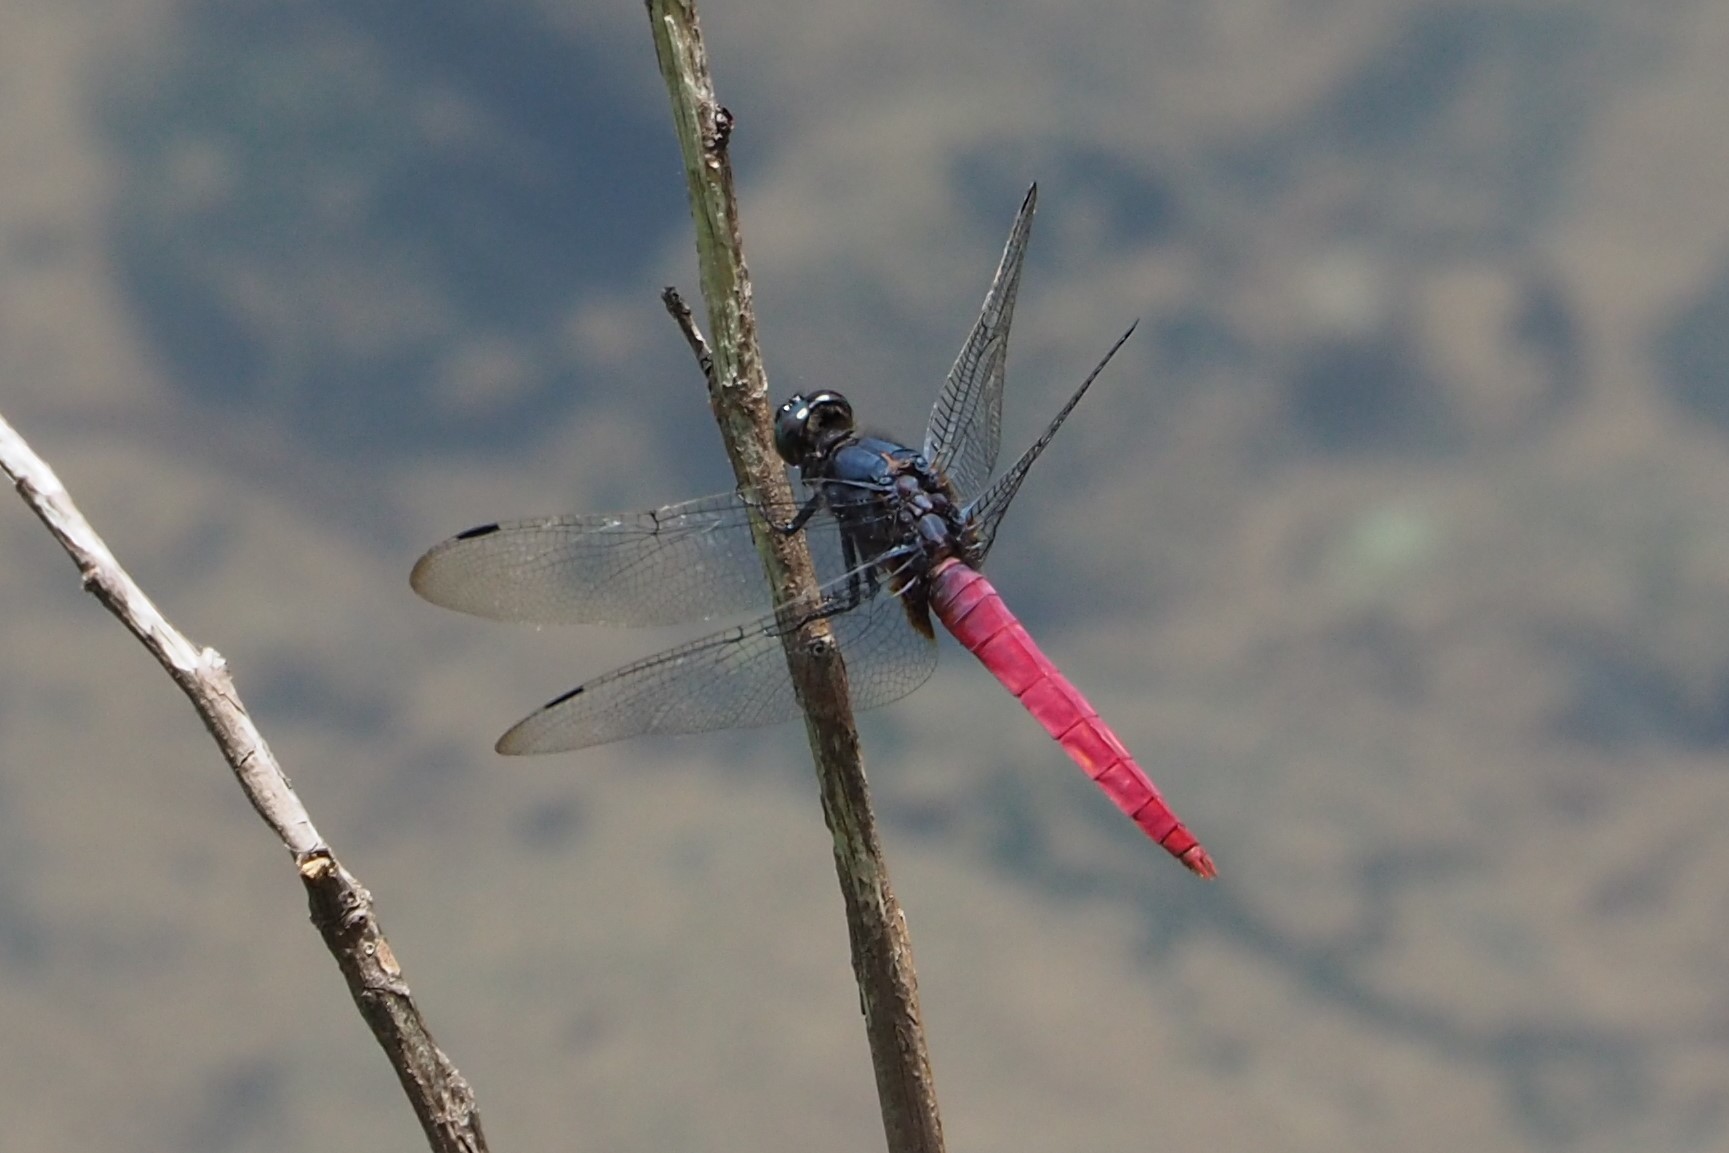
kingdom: Animalia
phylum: Arthropoda
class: Insecta
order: Odonata
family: Libellulidae
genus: Orthetrum
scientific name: Orthetrum pruinosum
